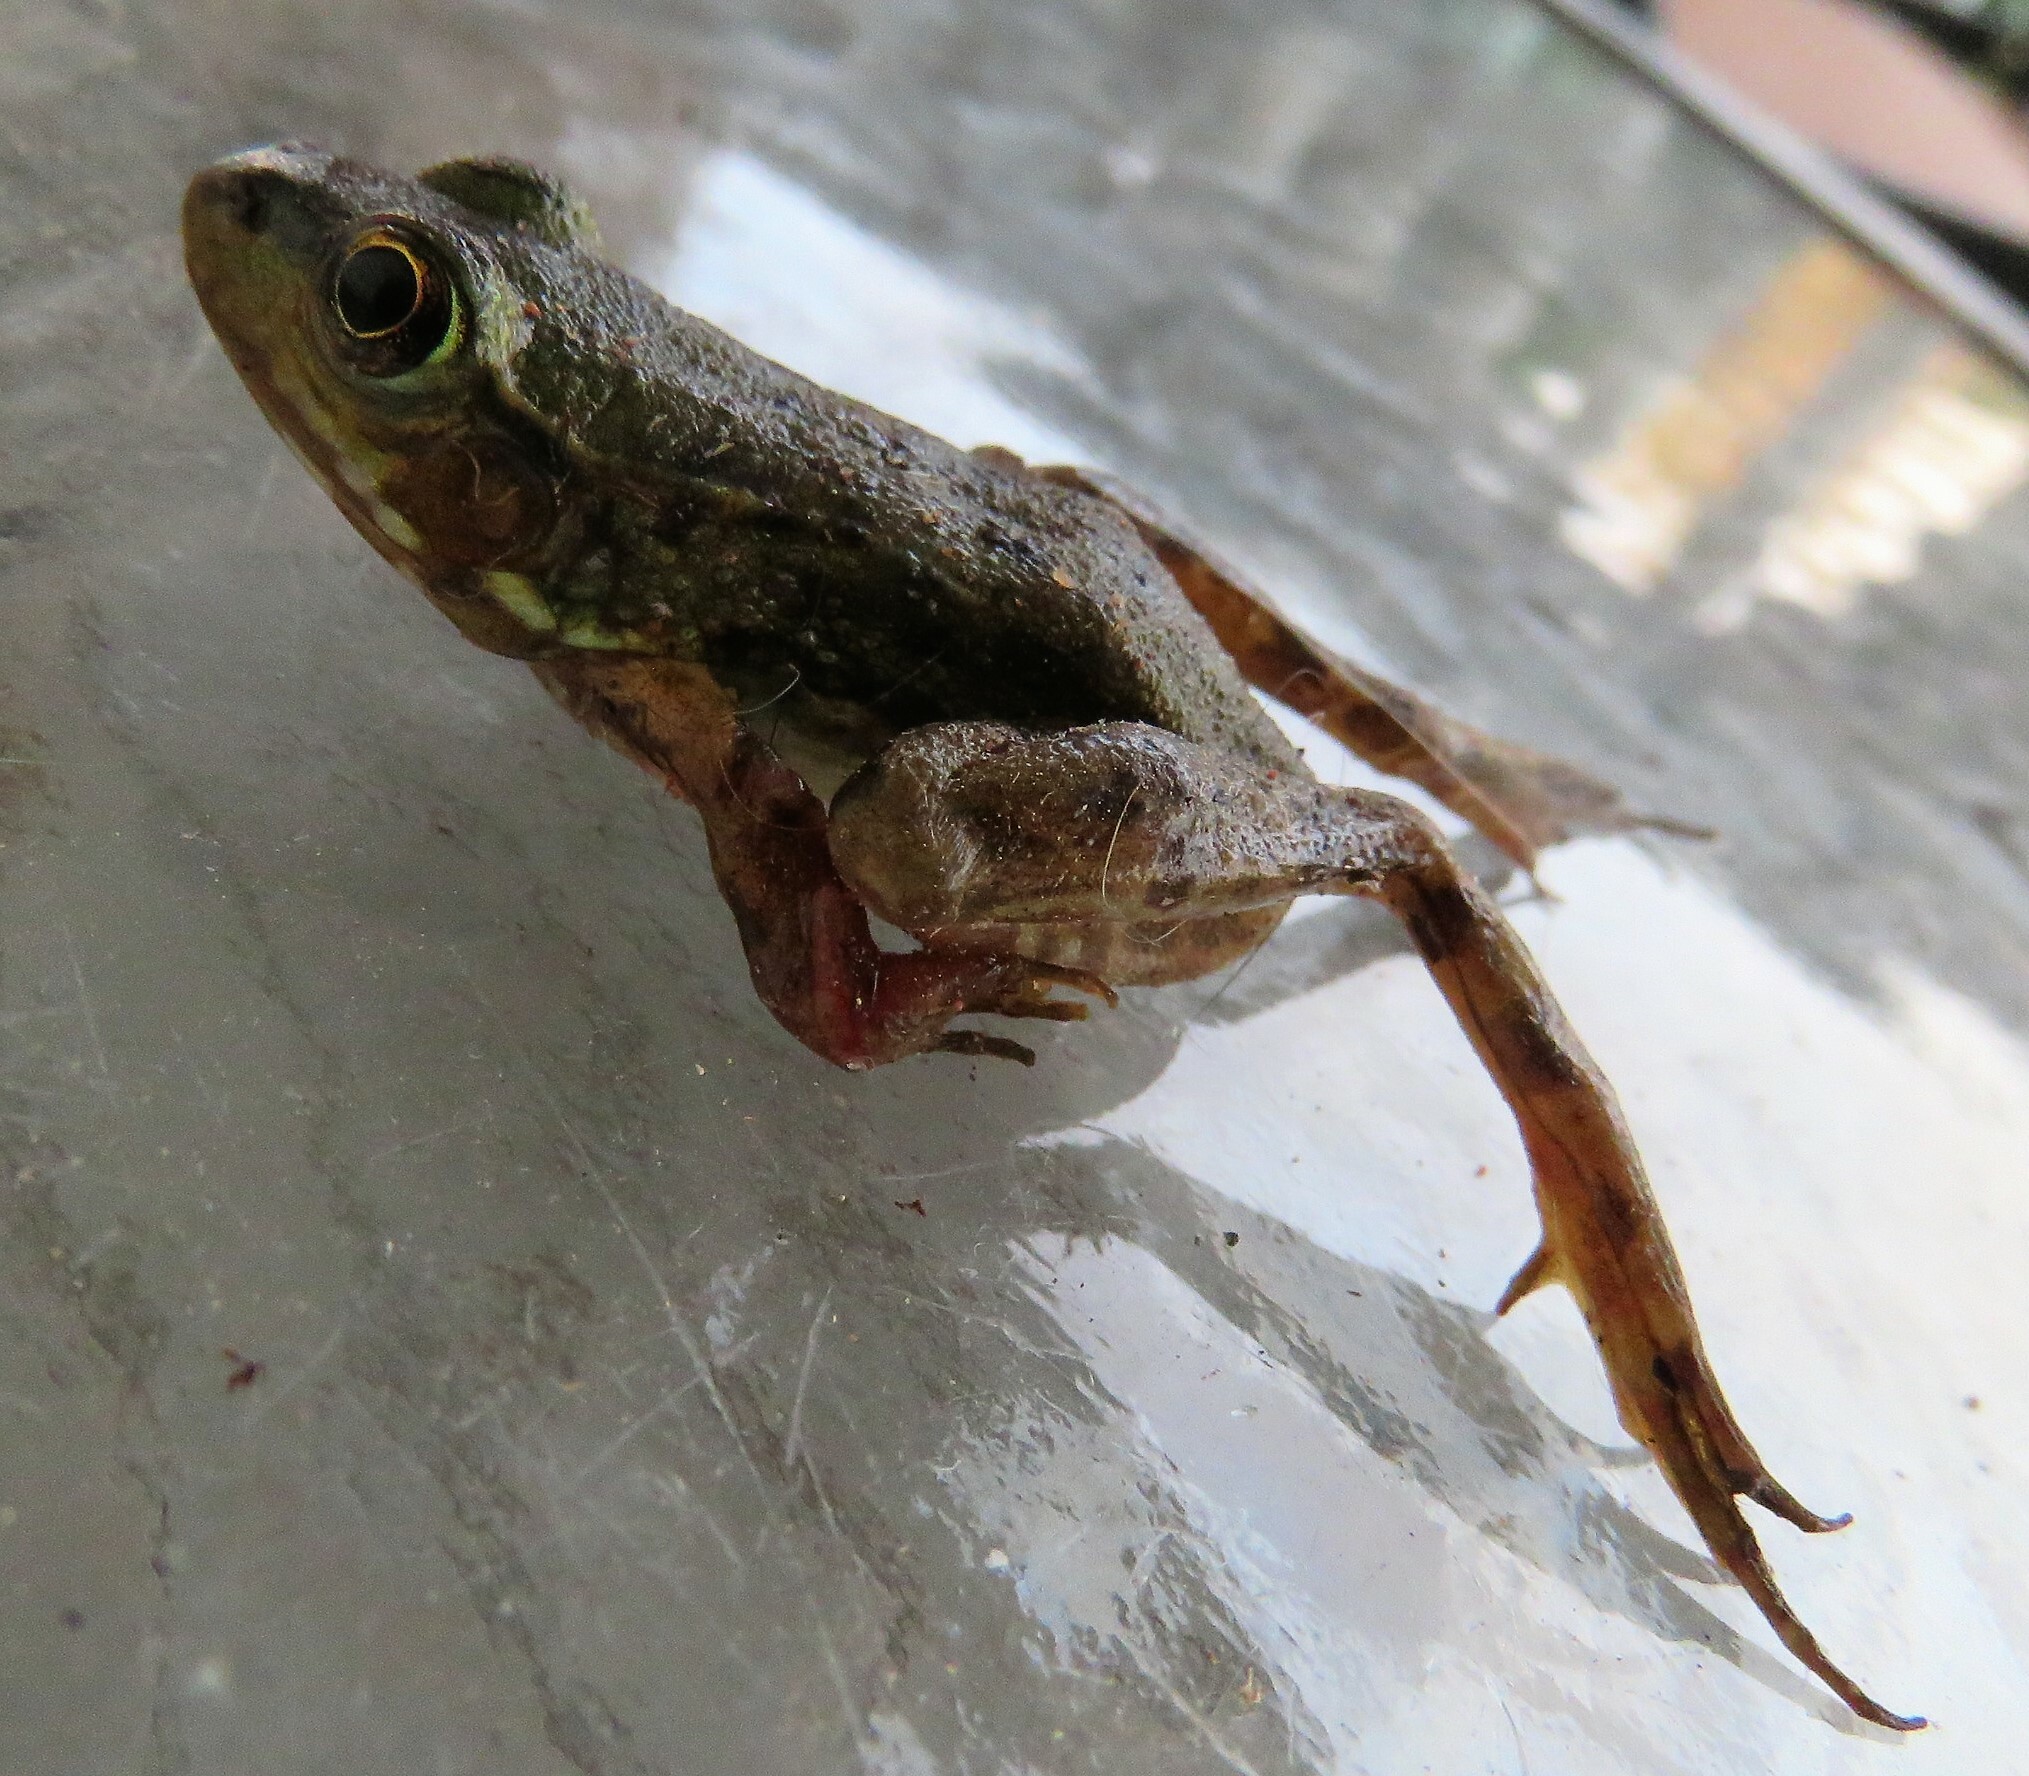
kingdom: Animalia
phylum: Chordata
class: Amphibia
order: Anura
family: Ranidae
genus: Lithobates
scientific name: Lithobates clamitans
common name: Green frog
